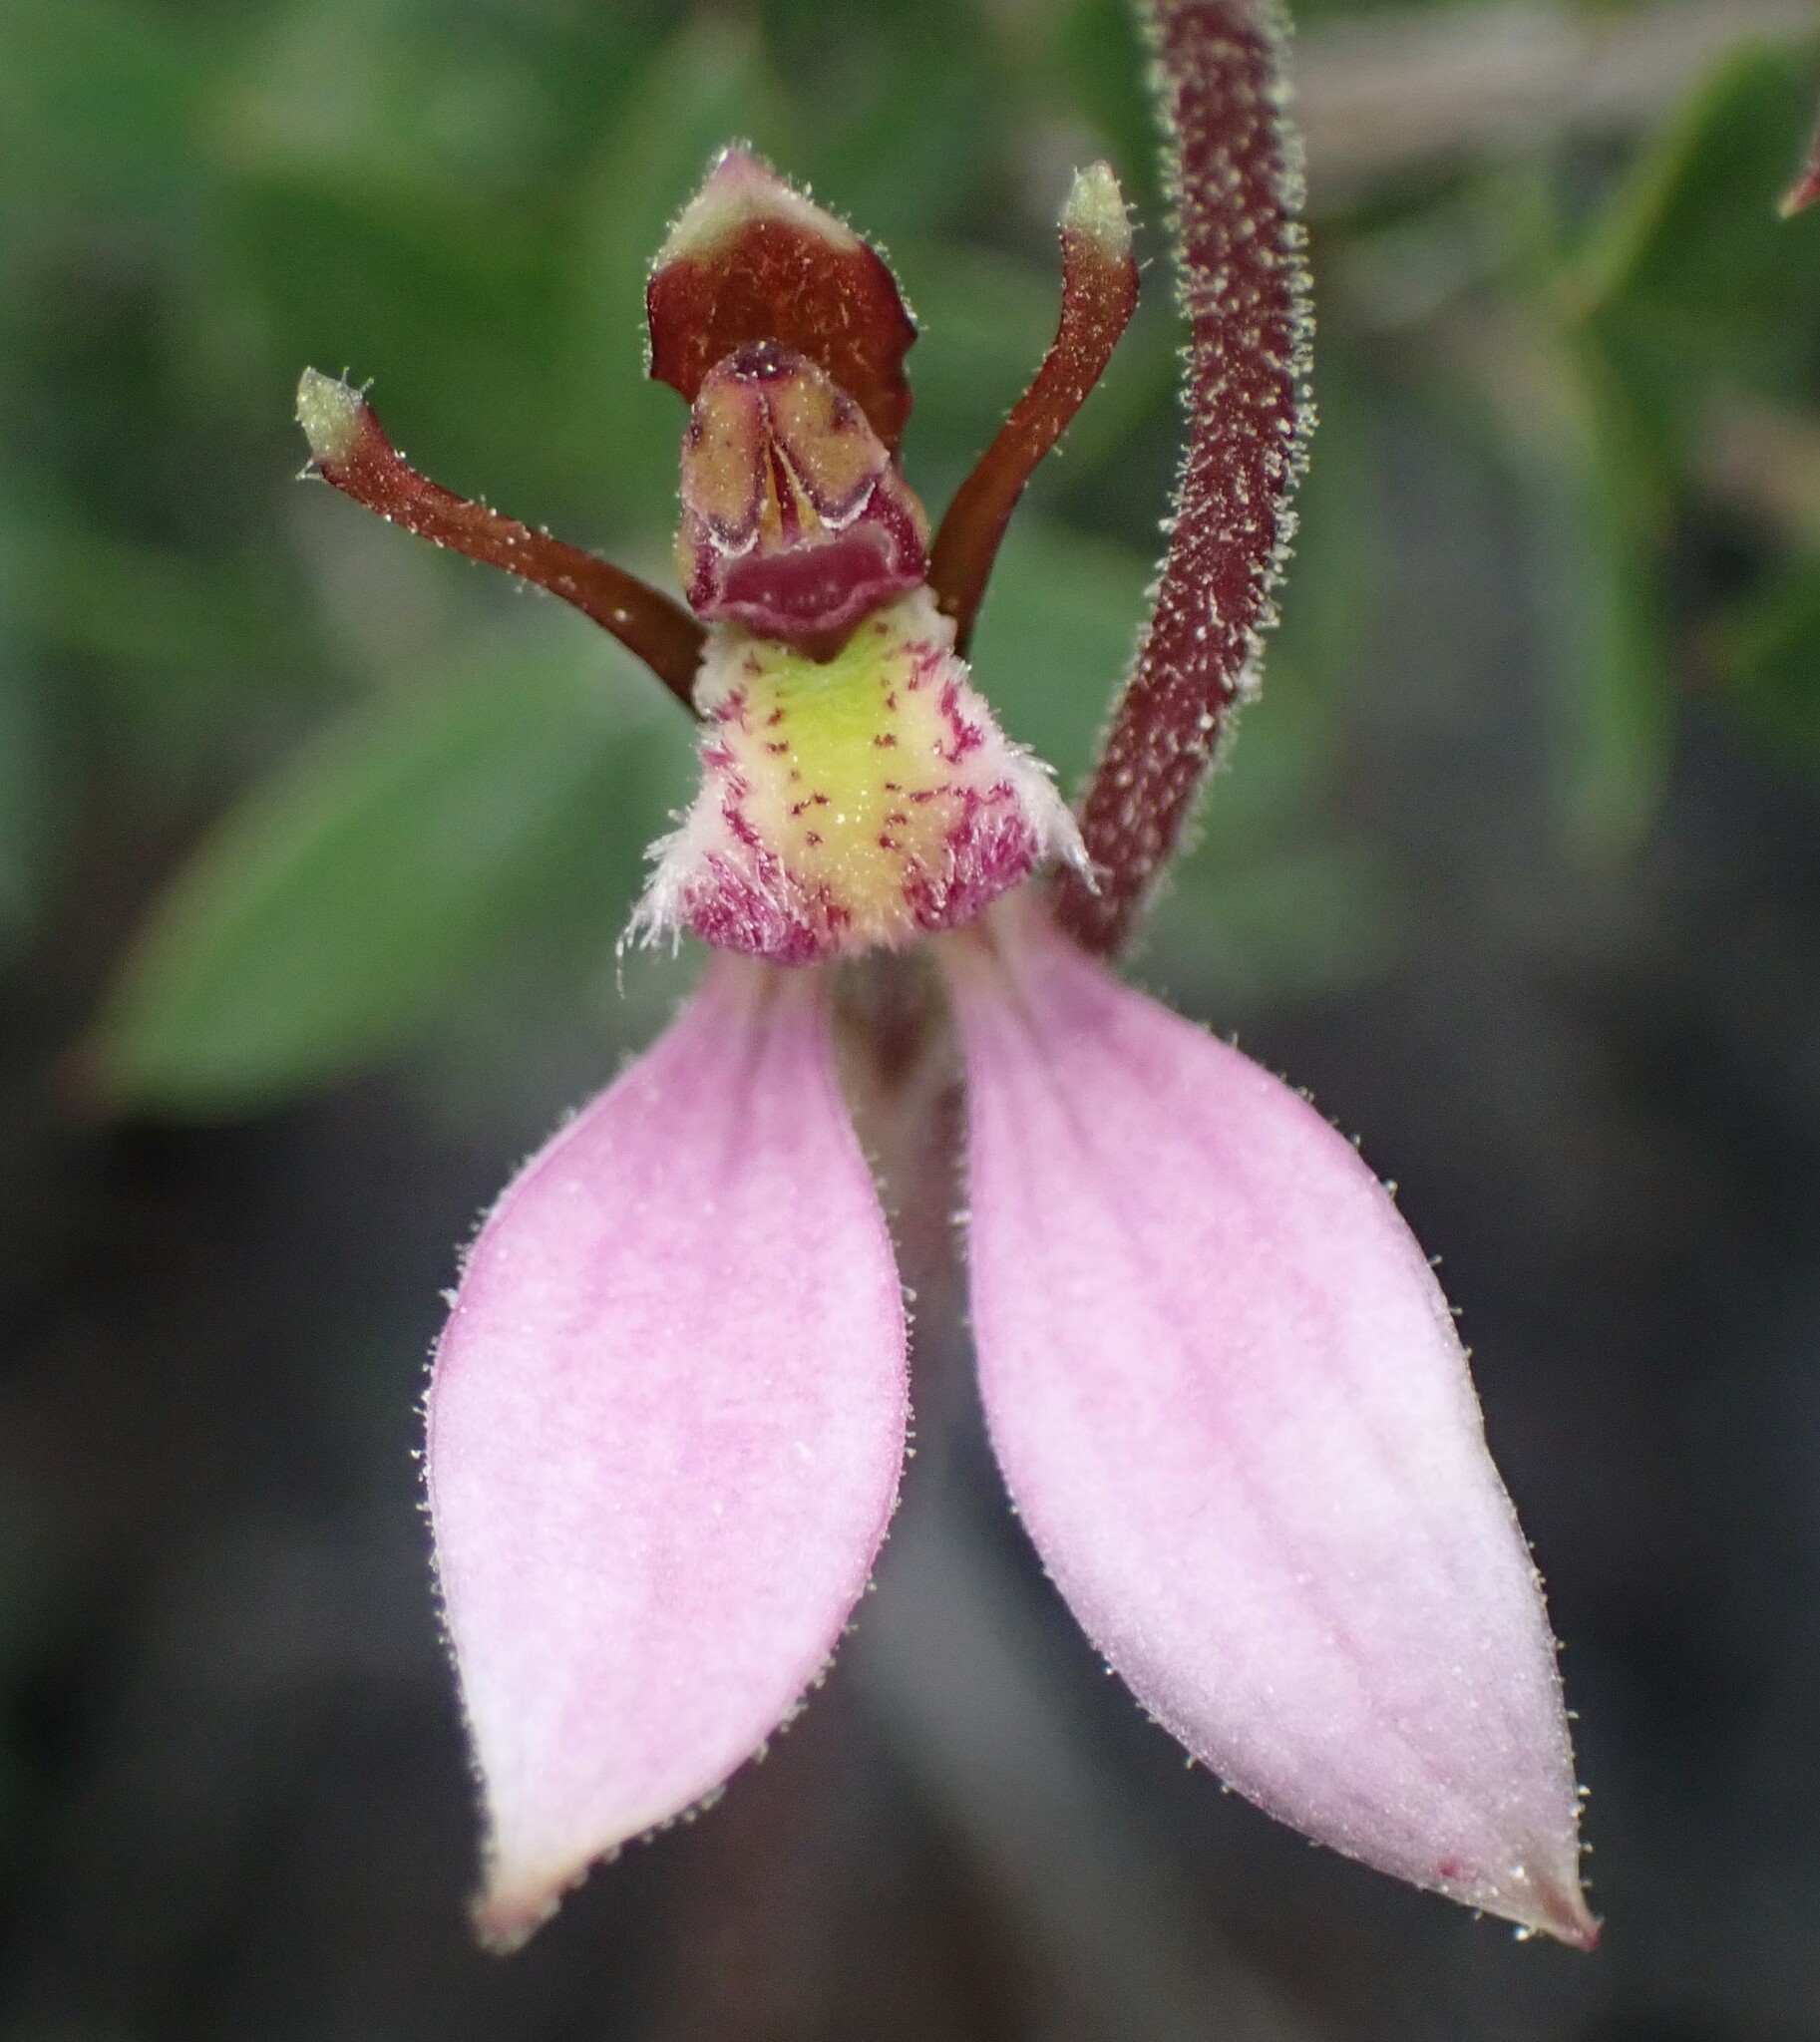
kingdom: Plantae
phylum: Tracheophyta
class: Liliopsida
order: Asparagales
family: Orchidaceae
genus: Eriochilus
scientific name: Eriochilus cucullatus
